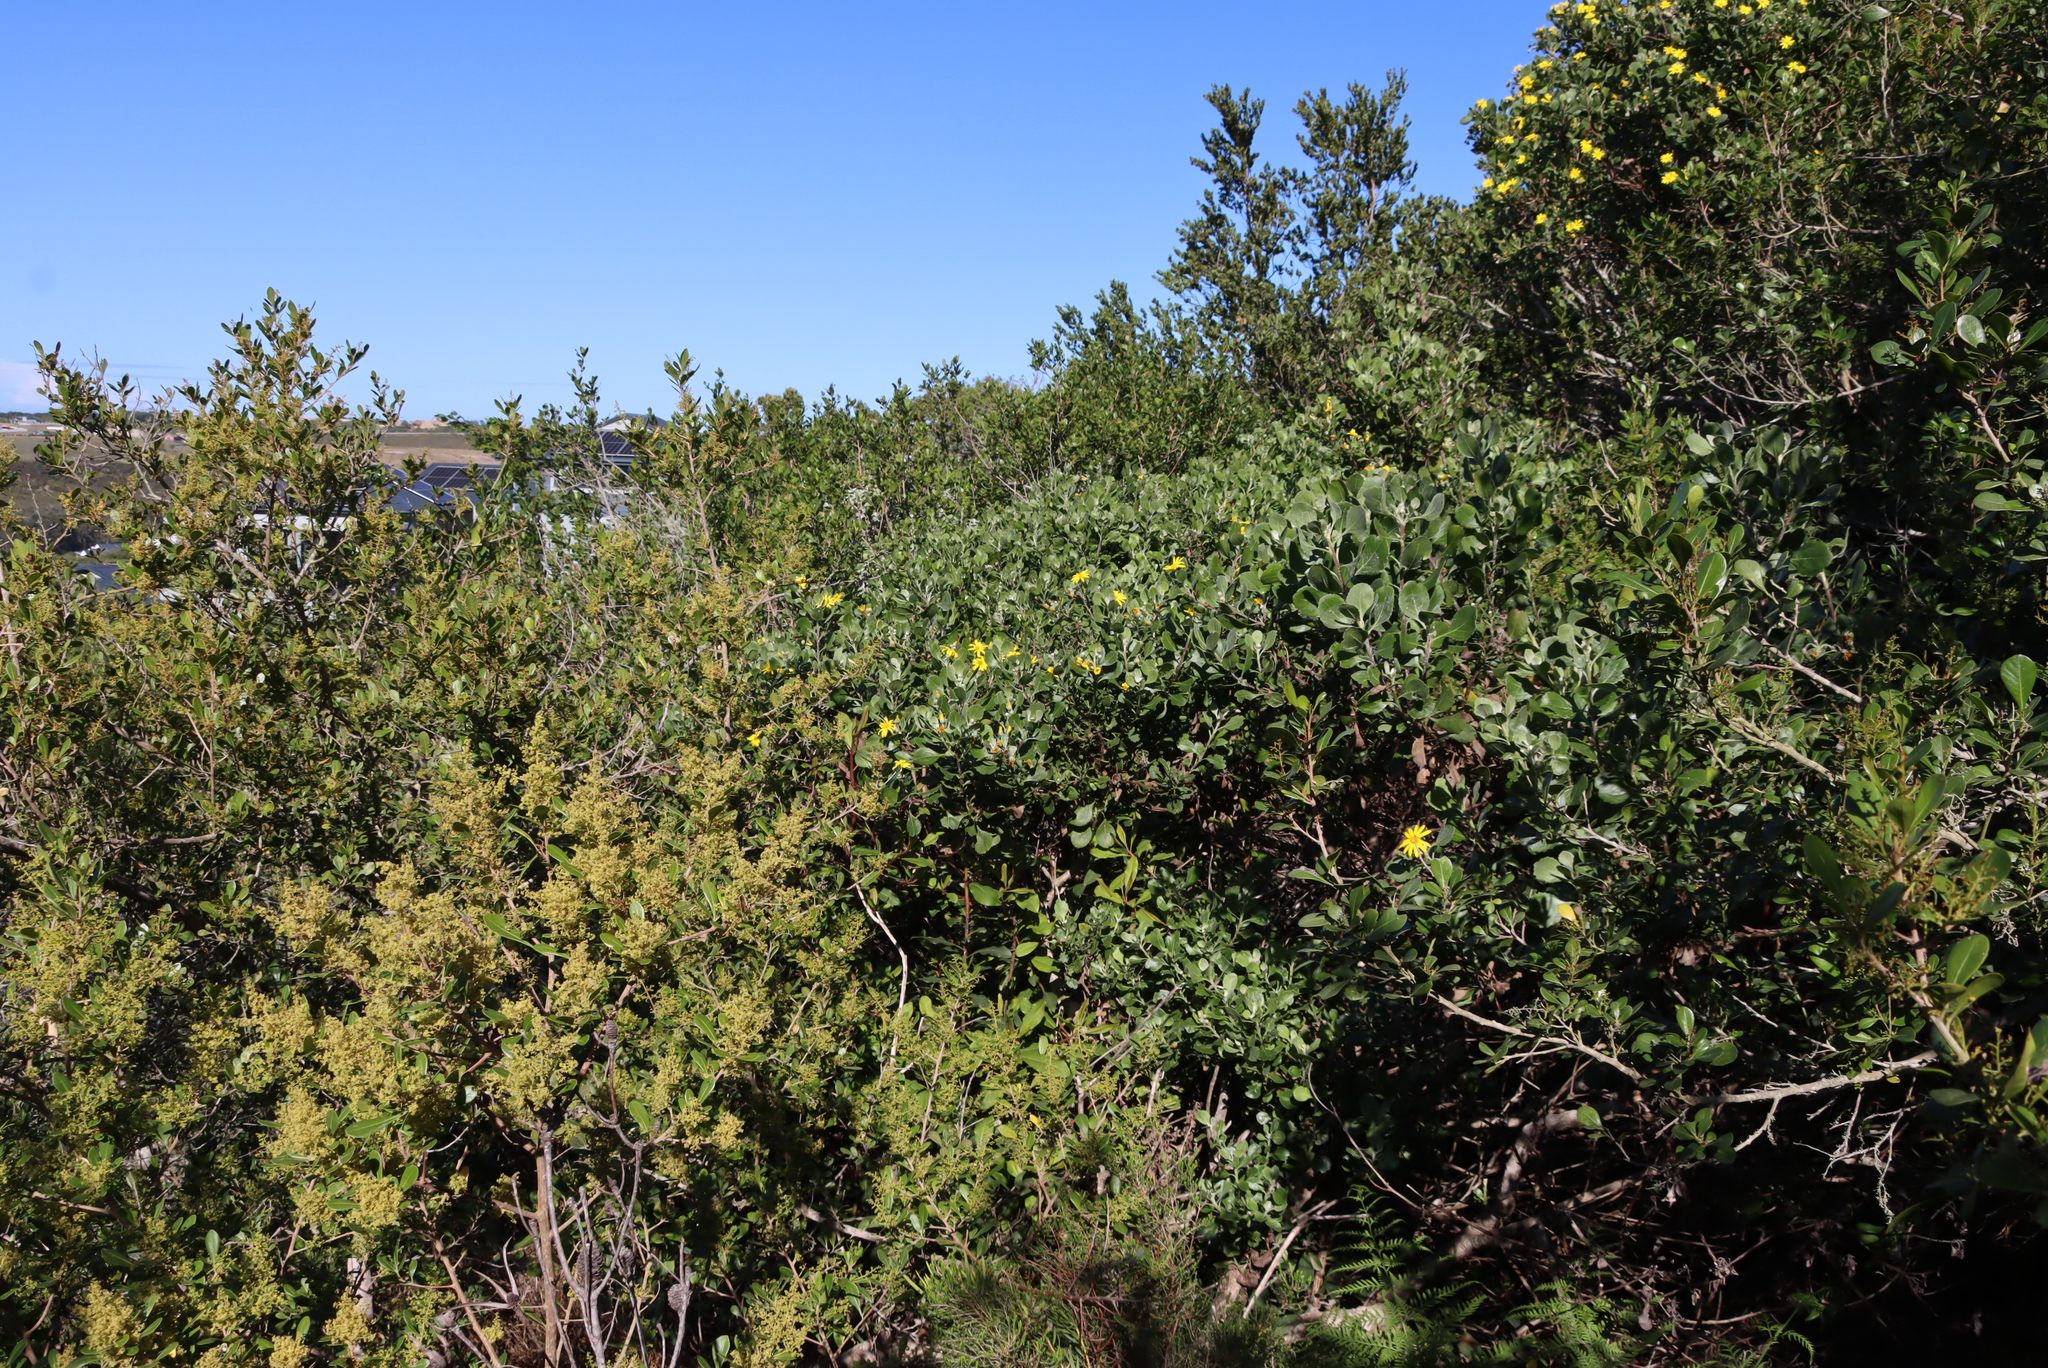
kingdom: Plantae
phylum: Tracheophyta
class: Magnoliopsida
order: Asterales
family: Asteraceae
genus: Osteospermum
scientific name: Osteospermum moniliferum
